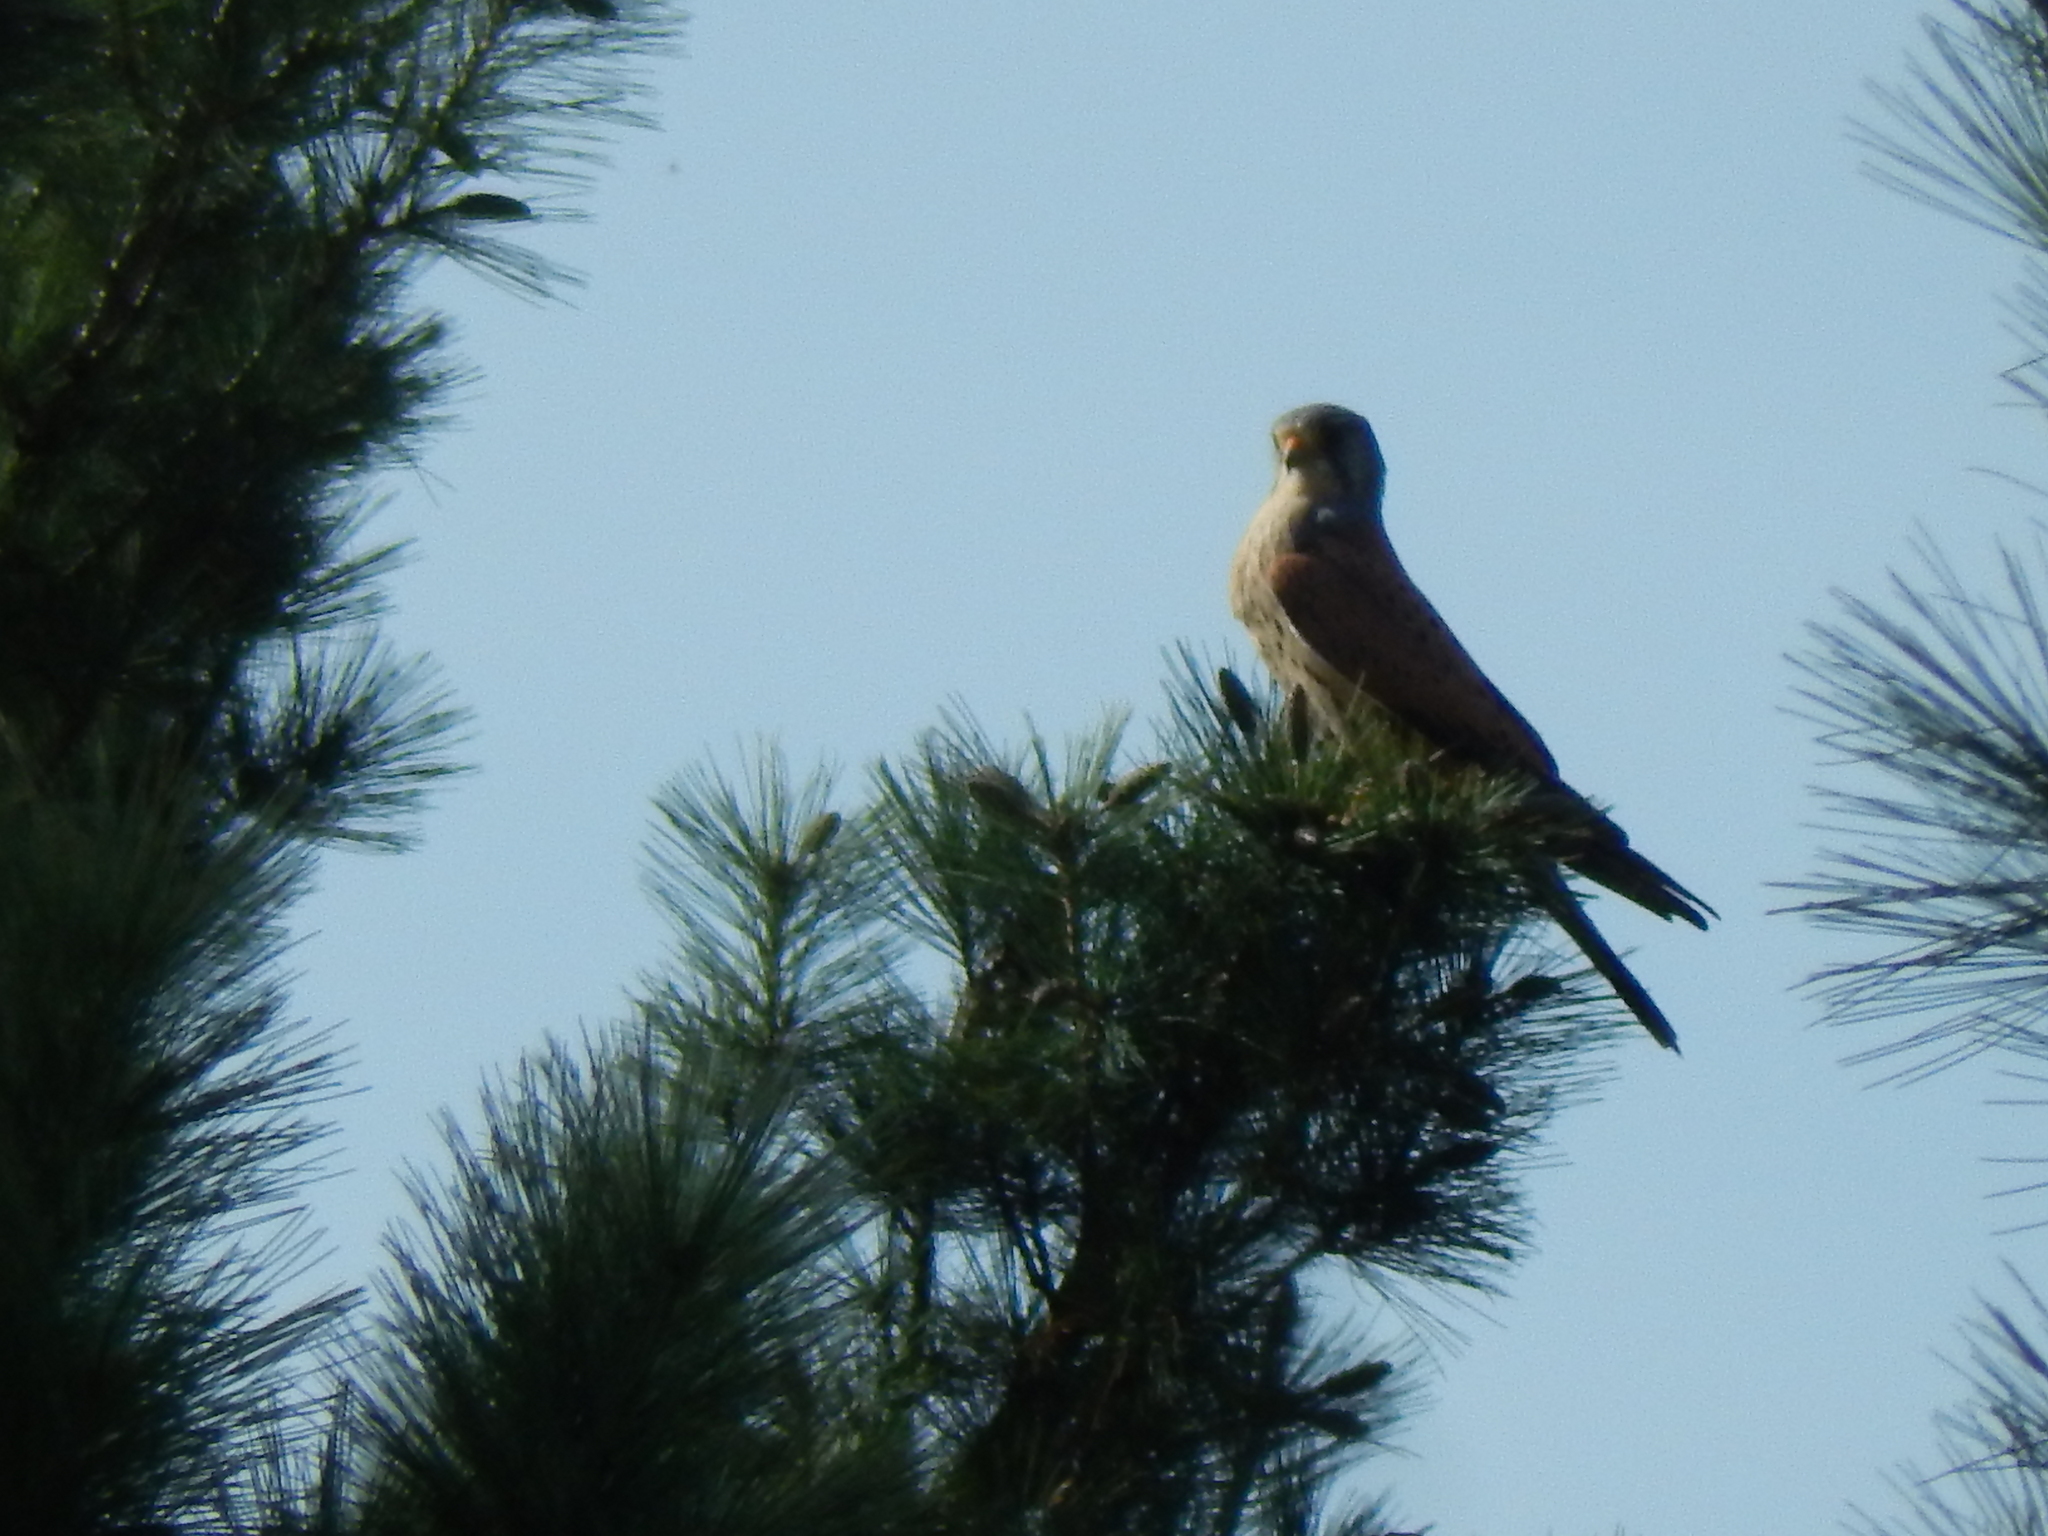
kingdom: Animalia
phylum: Chordata
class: Aves
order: Falconiformes
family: Falconidae
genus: Falco
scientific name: Falco tinnunculus
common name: Common kestrel
